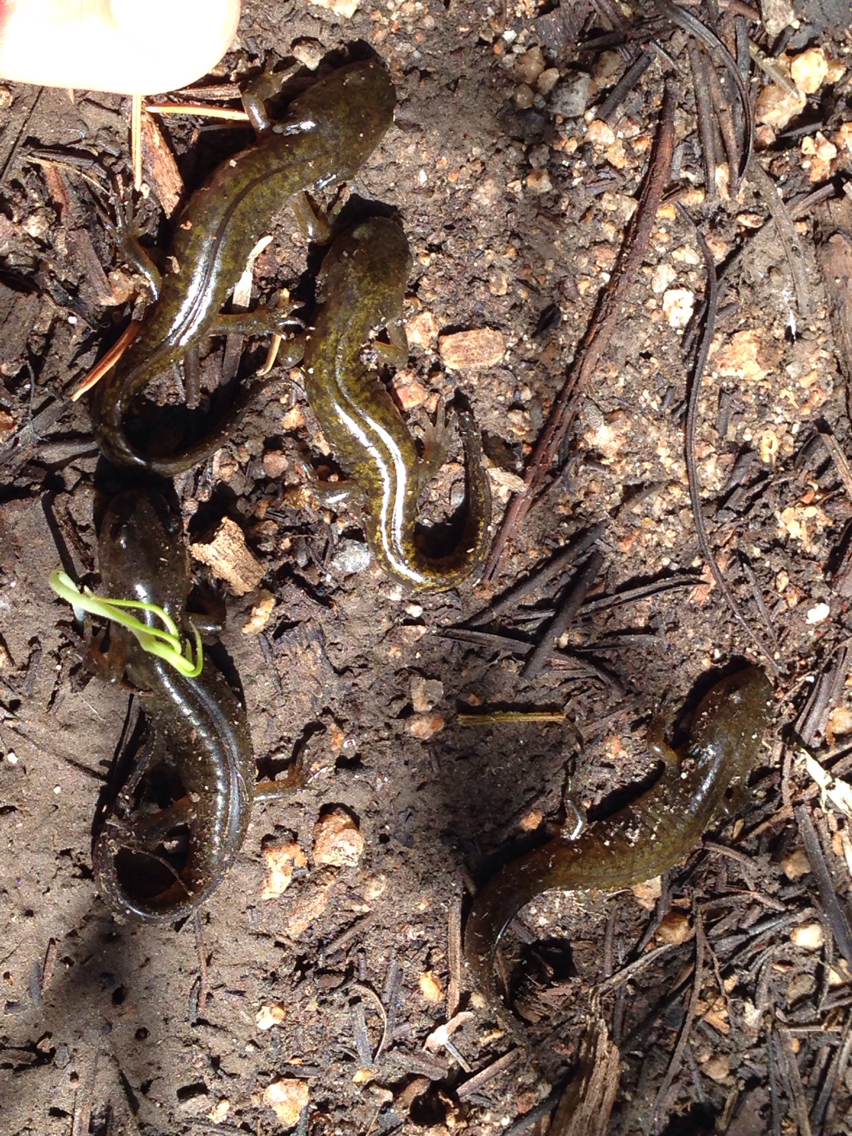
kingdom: Animalia
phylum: Chordata
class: Amphibia
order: Caudata
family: Ambystomatidae
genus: Ambystoma
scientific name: Ambystoma macrodactylum
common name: Long-toed salamander
